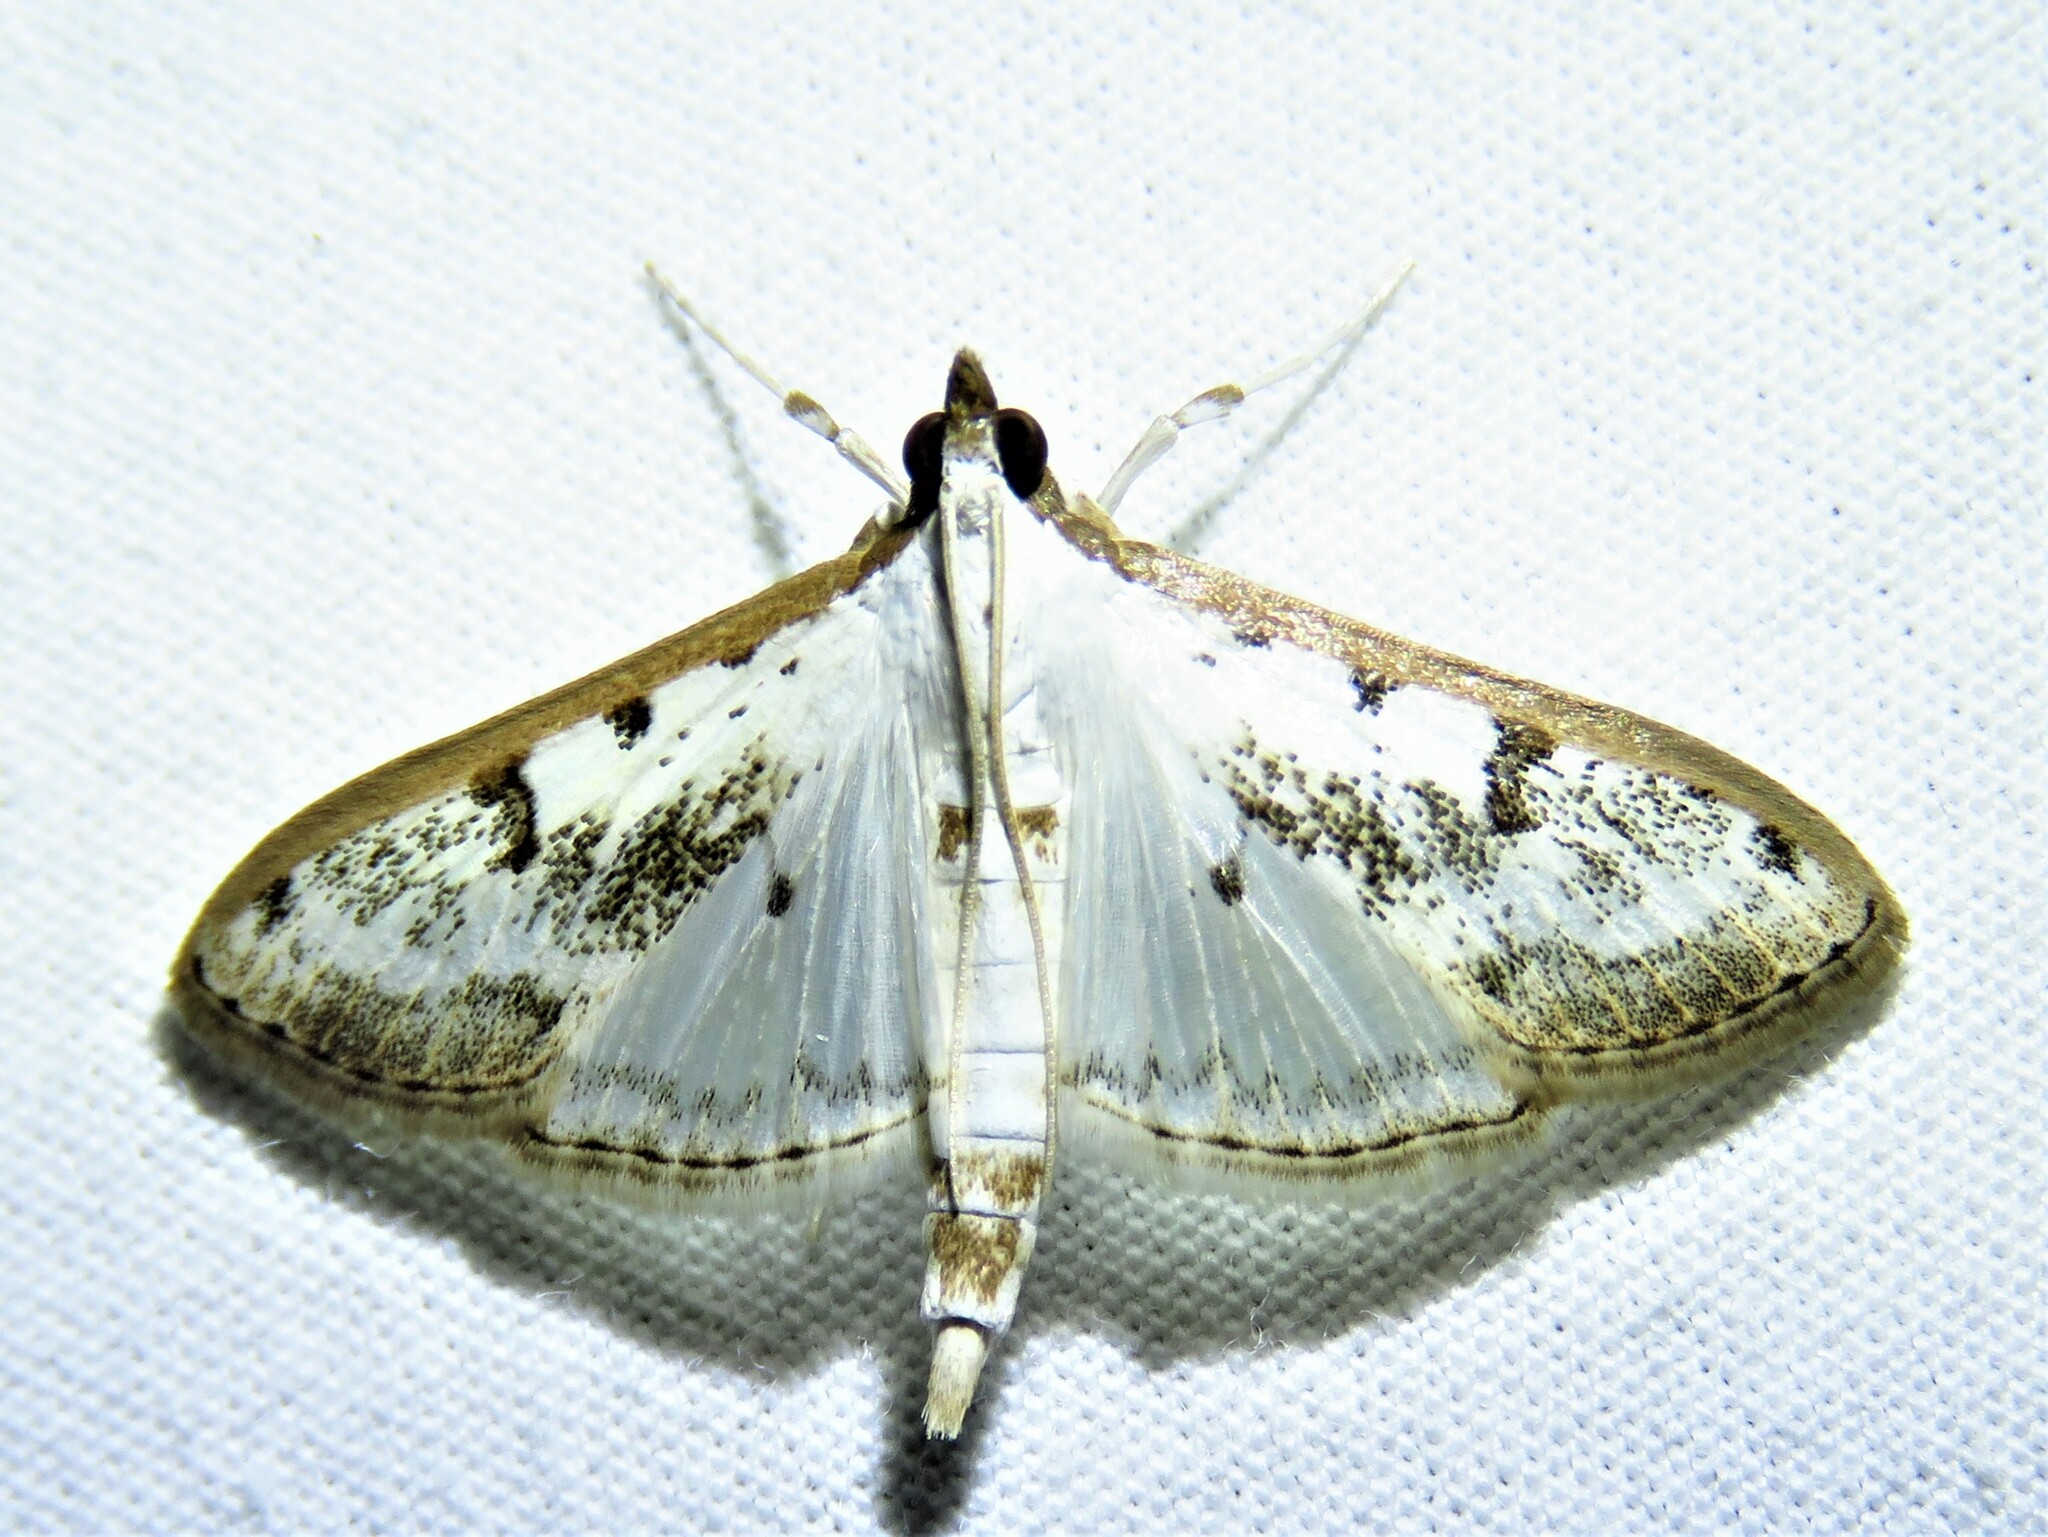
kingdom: Animalia
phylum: Arthropoda
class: Insecta
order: Lepidoptera
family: Crambidae
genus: Palpita
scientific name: Palpita gracilalis
